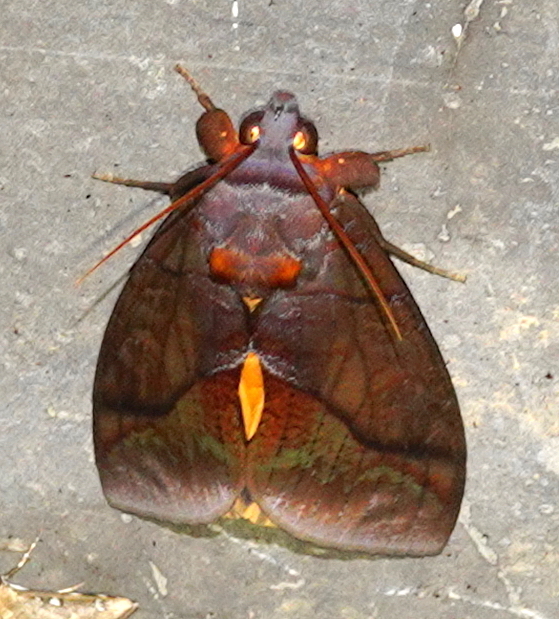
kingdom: Animalia
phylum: Arthropoda
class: Insecta
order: Lepidoptera
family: Erebidae
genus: Eudocima
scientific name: Eudocima homaena
